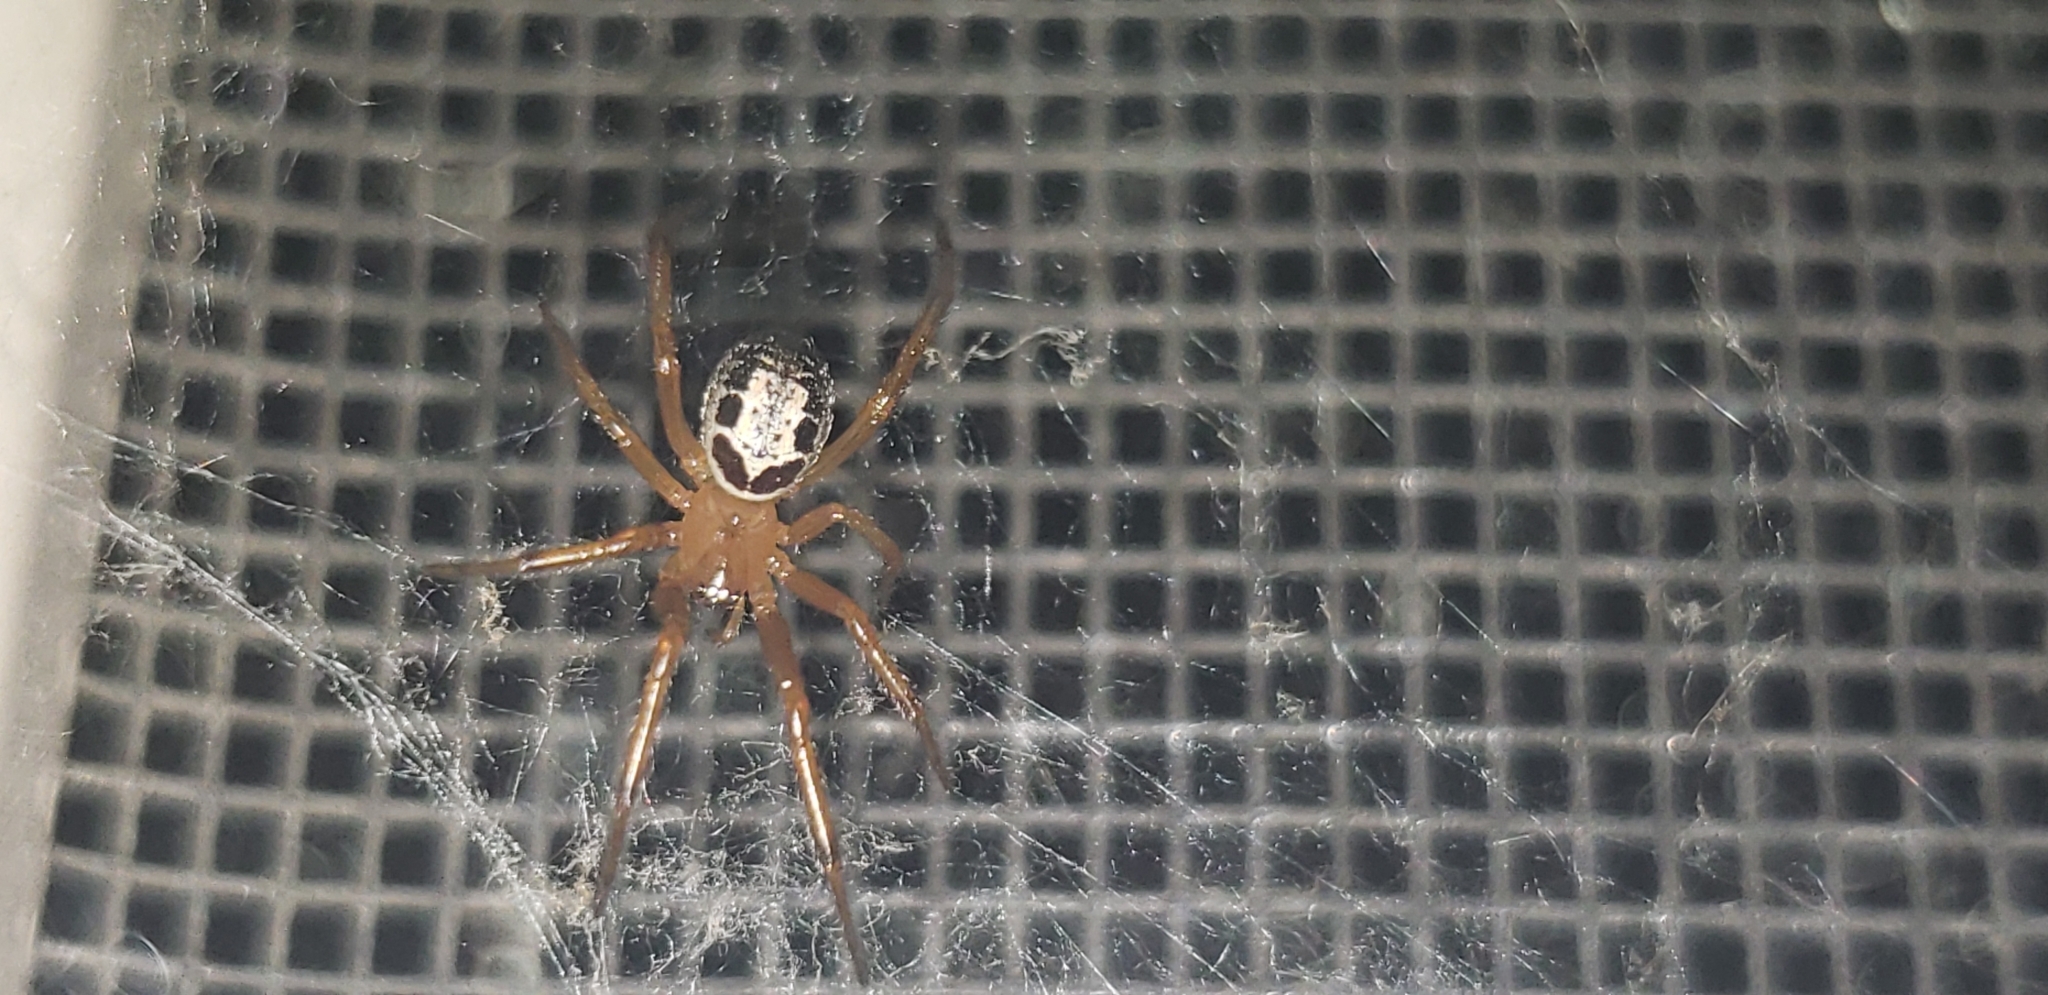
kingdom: Animalia
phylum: Arthropoda
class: Arachnida
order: Araneae
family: Theridiidae
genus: Steatoda
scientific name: Steatoda nobilis
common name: Cobweb weaver
